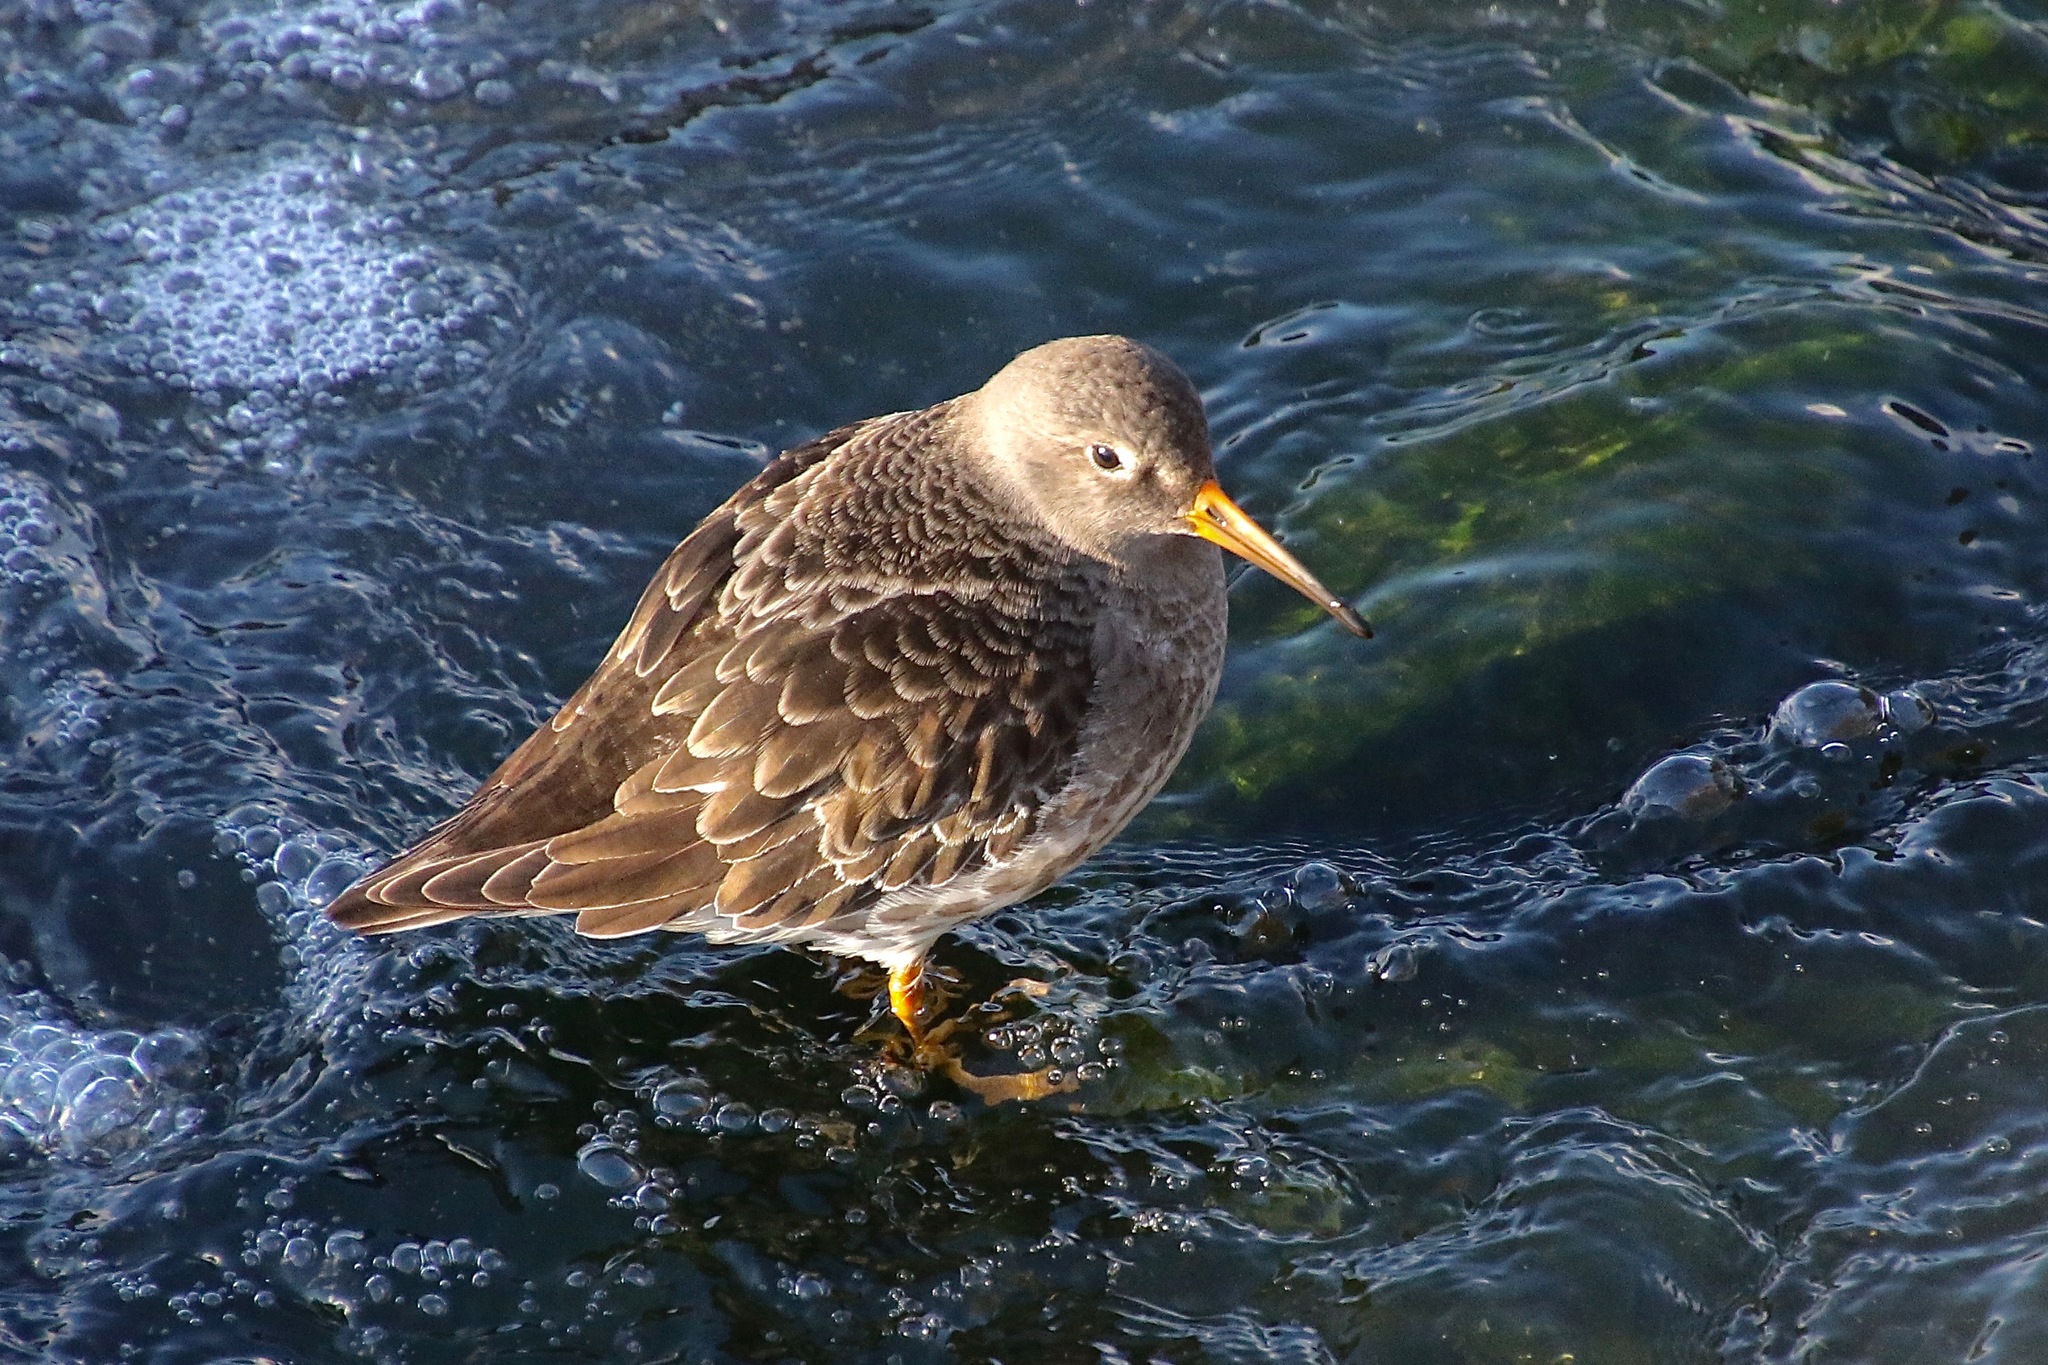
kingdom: Animalia
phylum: Chordata
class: Aves
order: Charadriiformes
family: Scolopacidae
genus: Calidris
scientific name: Calidris maritima
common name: Purple sandpiper
